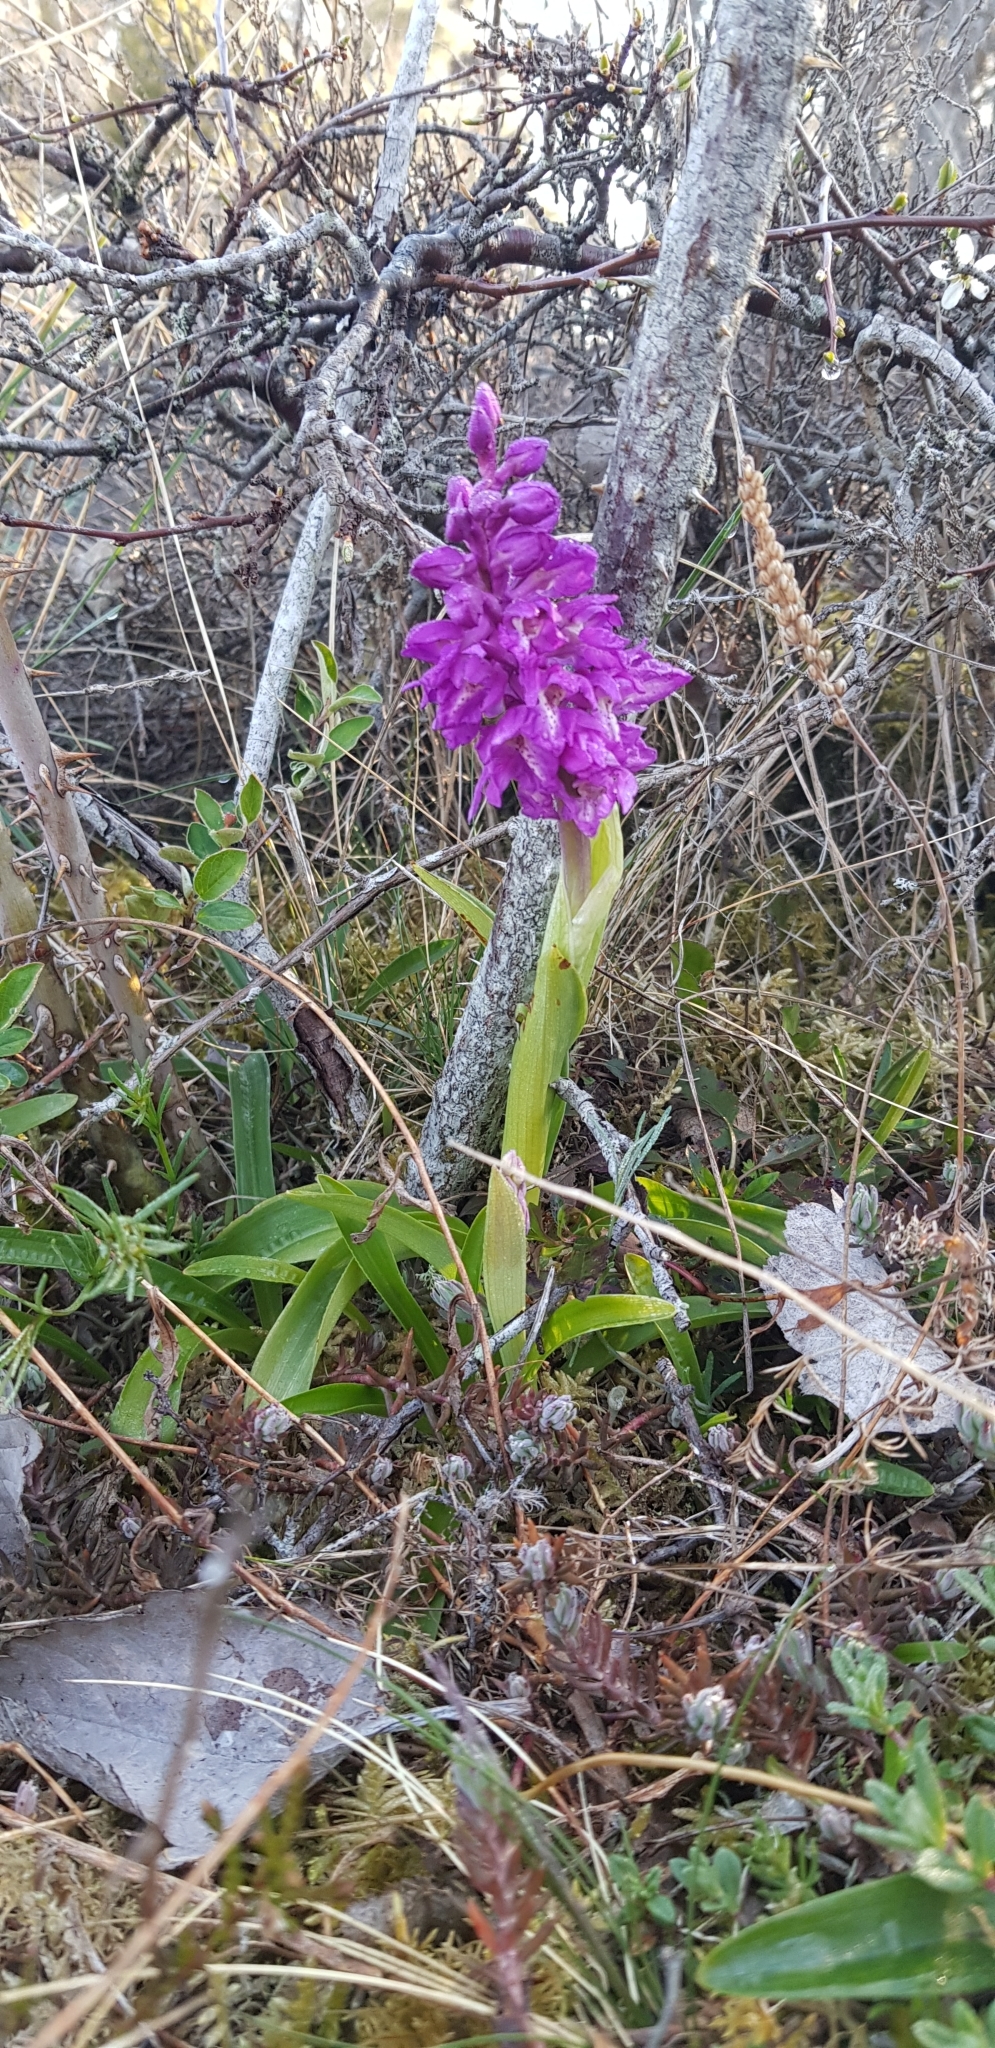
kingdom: Plantae
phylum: Tracheophyta
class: Liliopsida
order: Asparagales
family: Orchidaceae
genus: Orchis
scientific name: Orchis mascula
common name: Early-purple orchid
